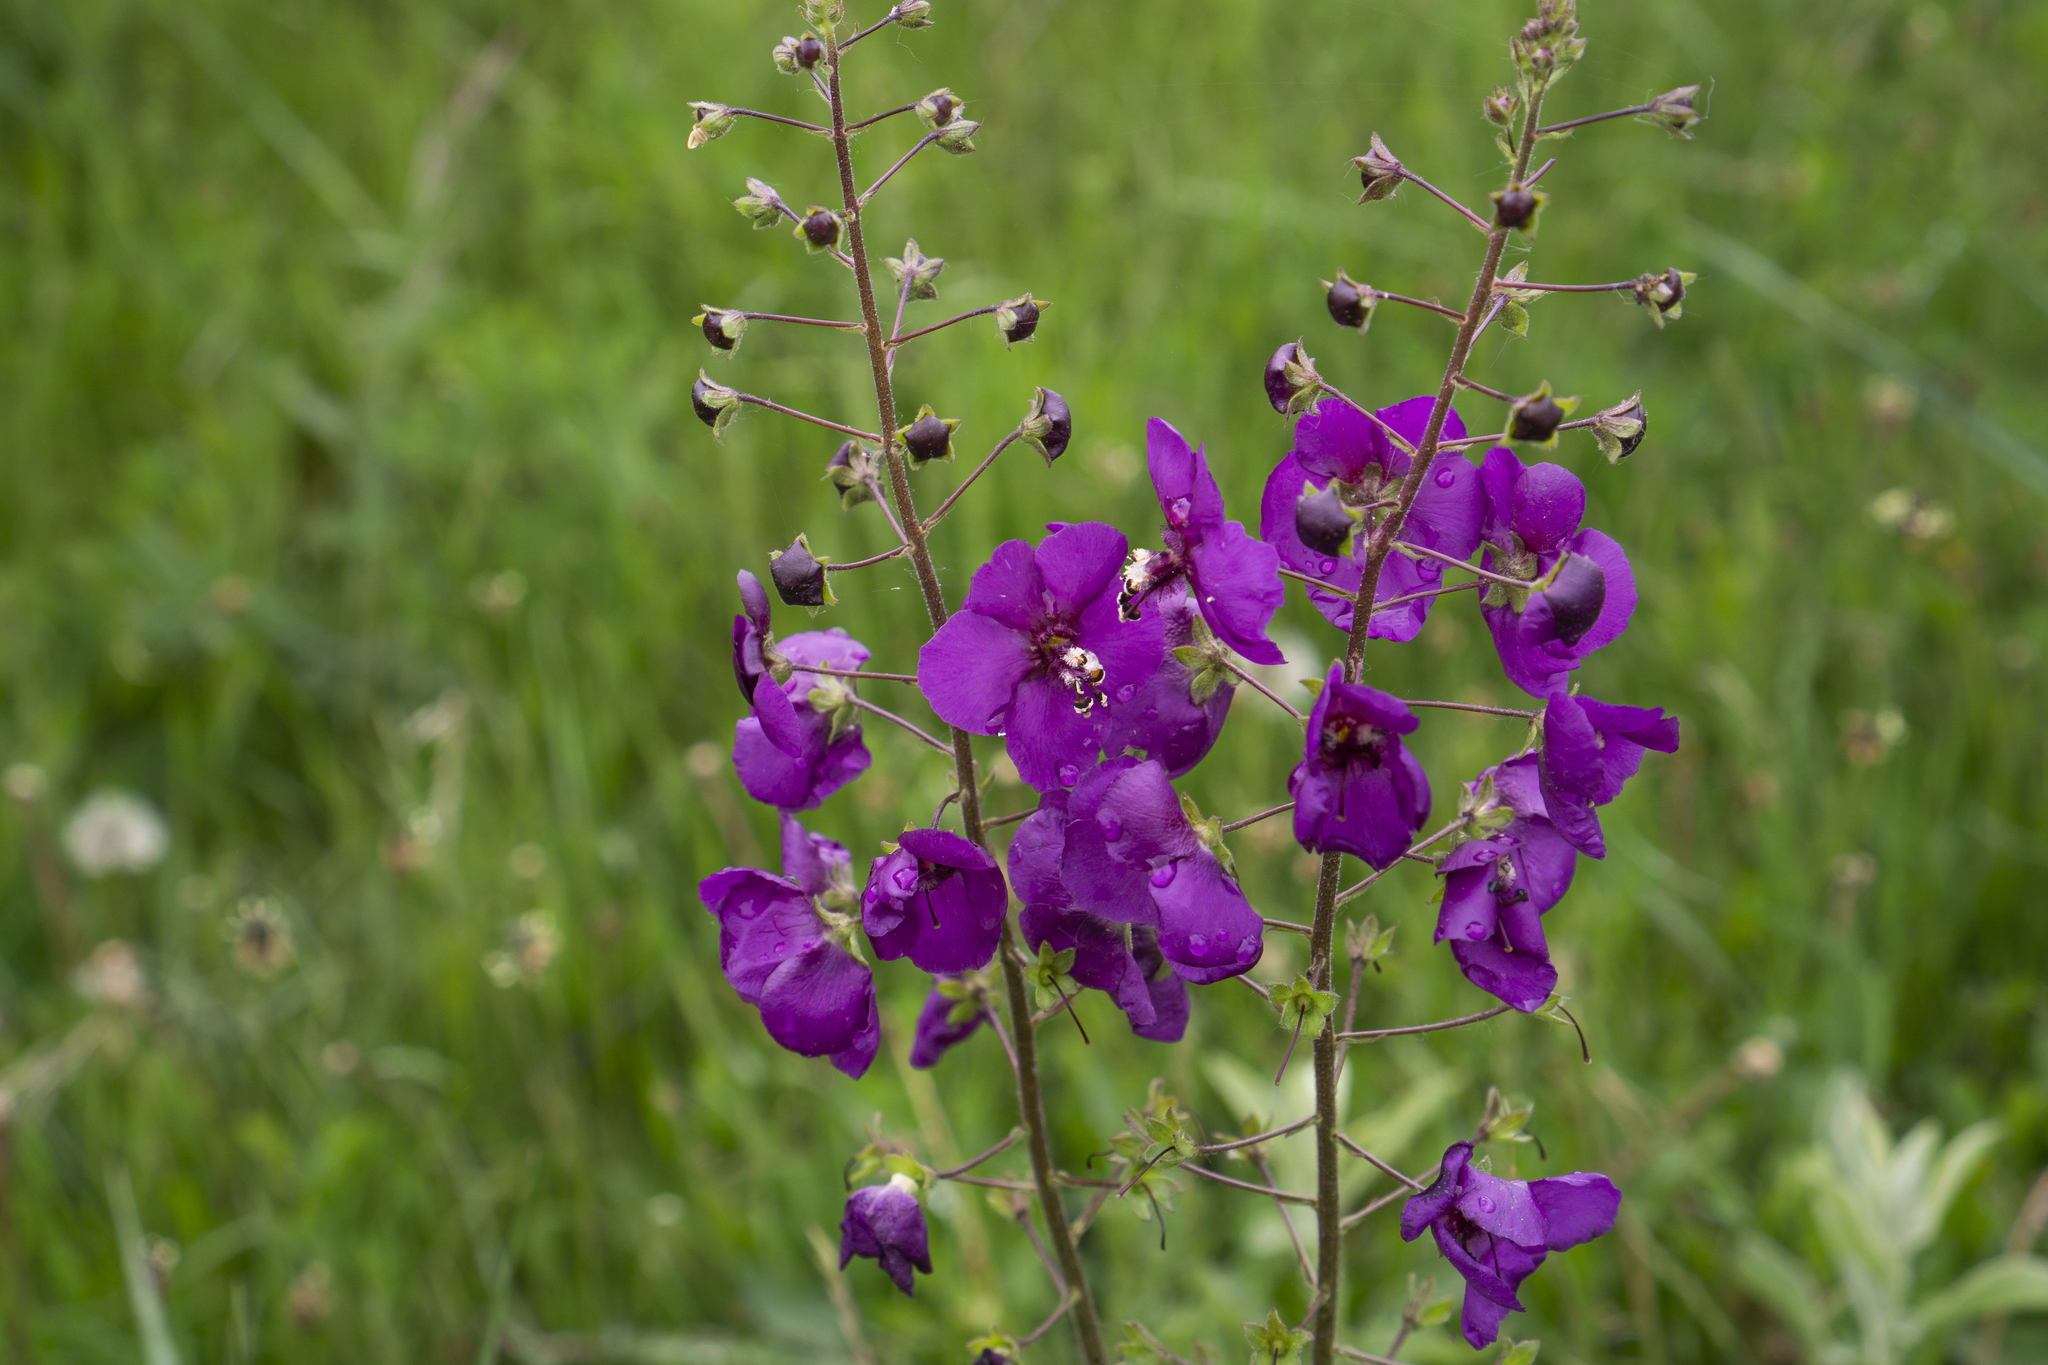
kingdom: Plantae
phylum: Tracheophyta
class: Magnoliopsida
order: Lamiales
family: Scrophulariaceae
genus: Verbascum
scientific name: Verbascum phoeniceum
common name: Purple mullein
